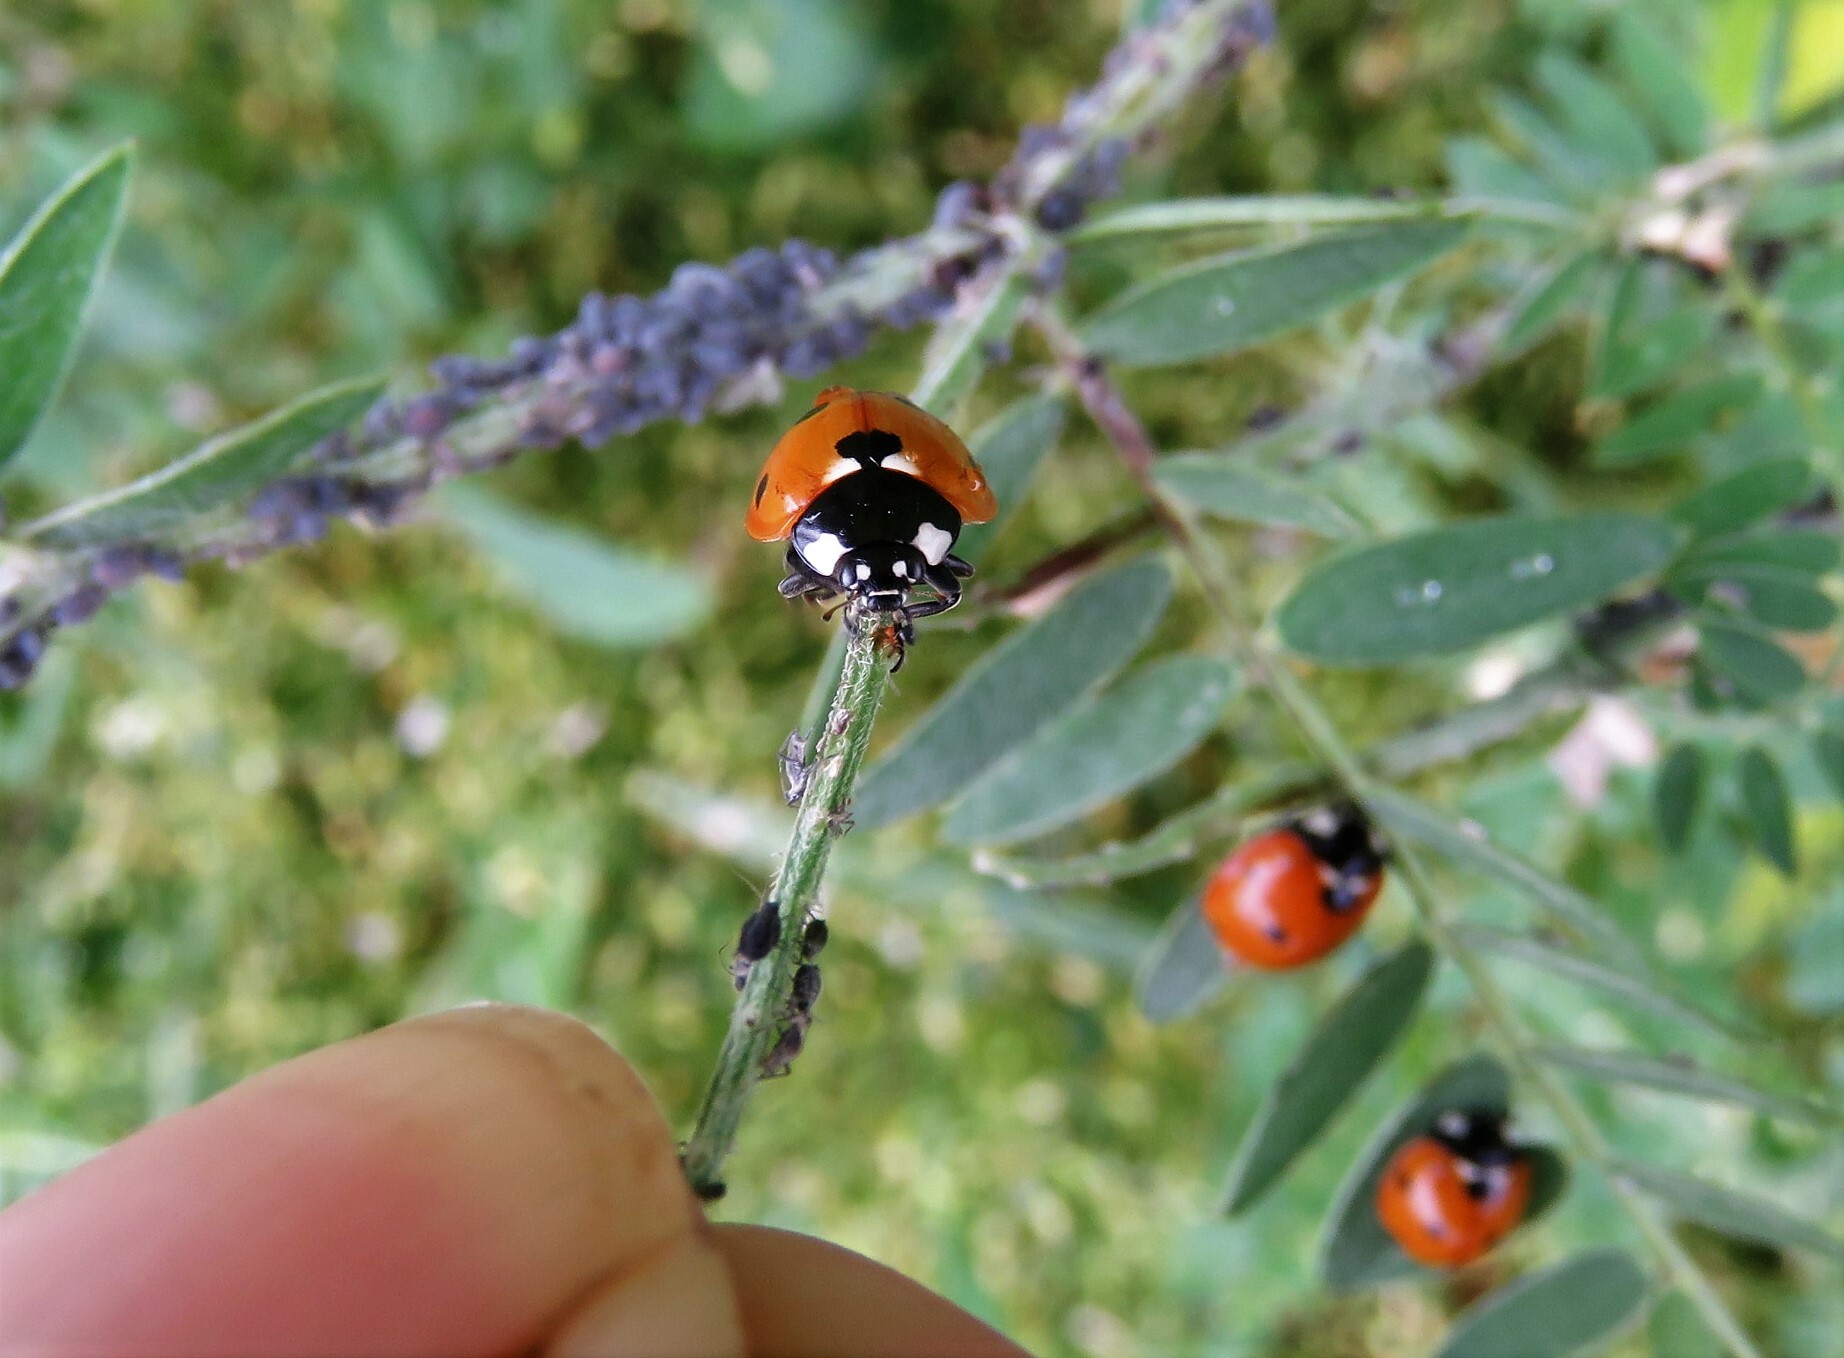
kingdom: Animalia
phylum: Arthropoda
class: Insecta
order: Coleoptera
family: Coccinellidae
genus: Coccinella
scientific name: Coccinella septempunctata
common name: Sevenspotted lady beetle
